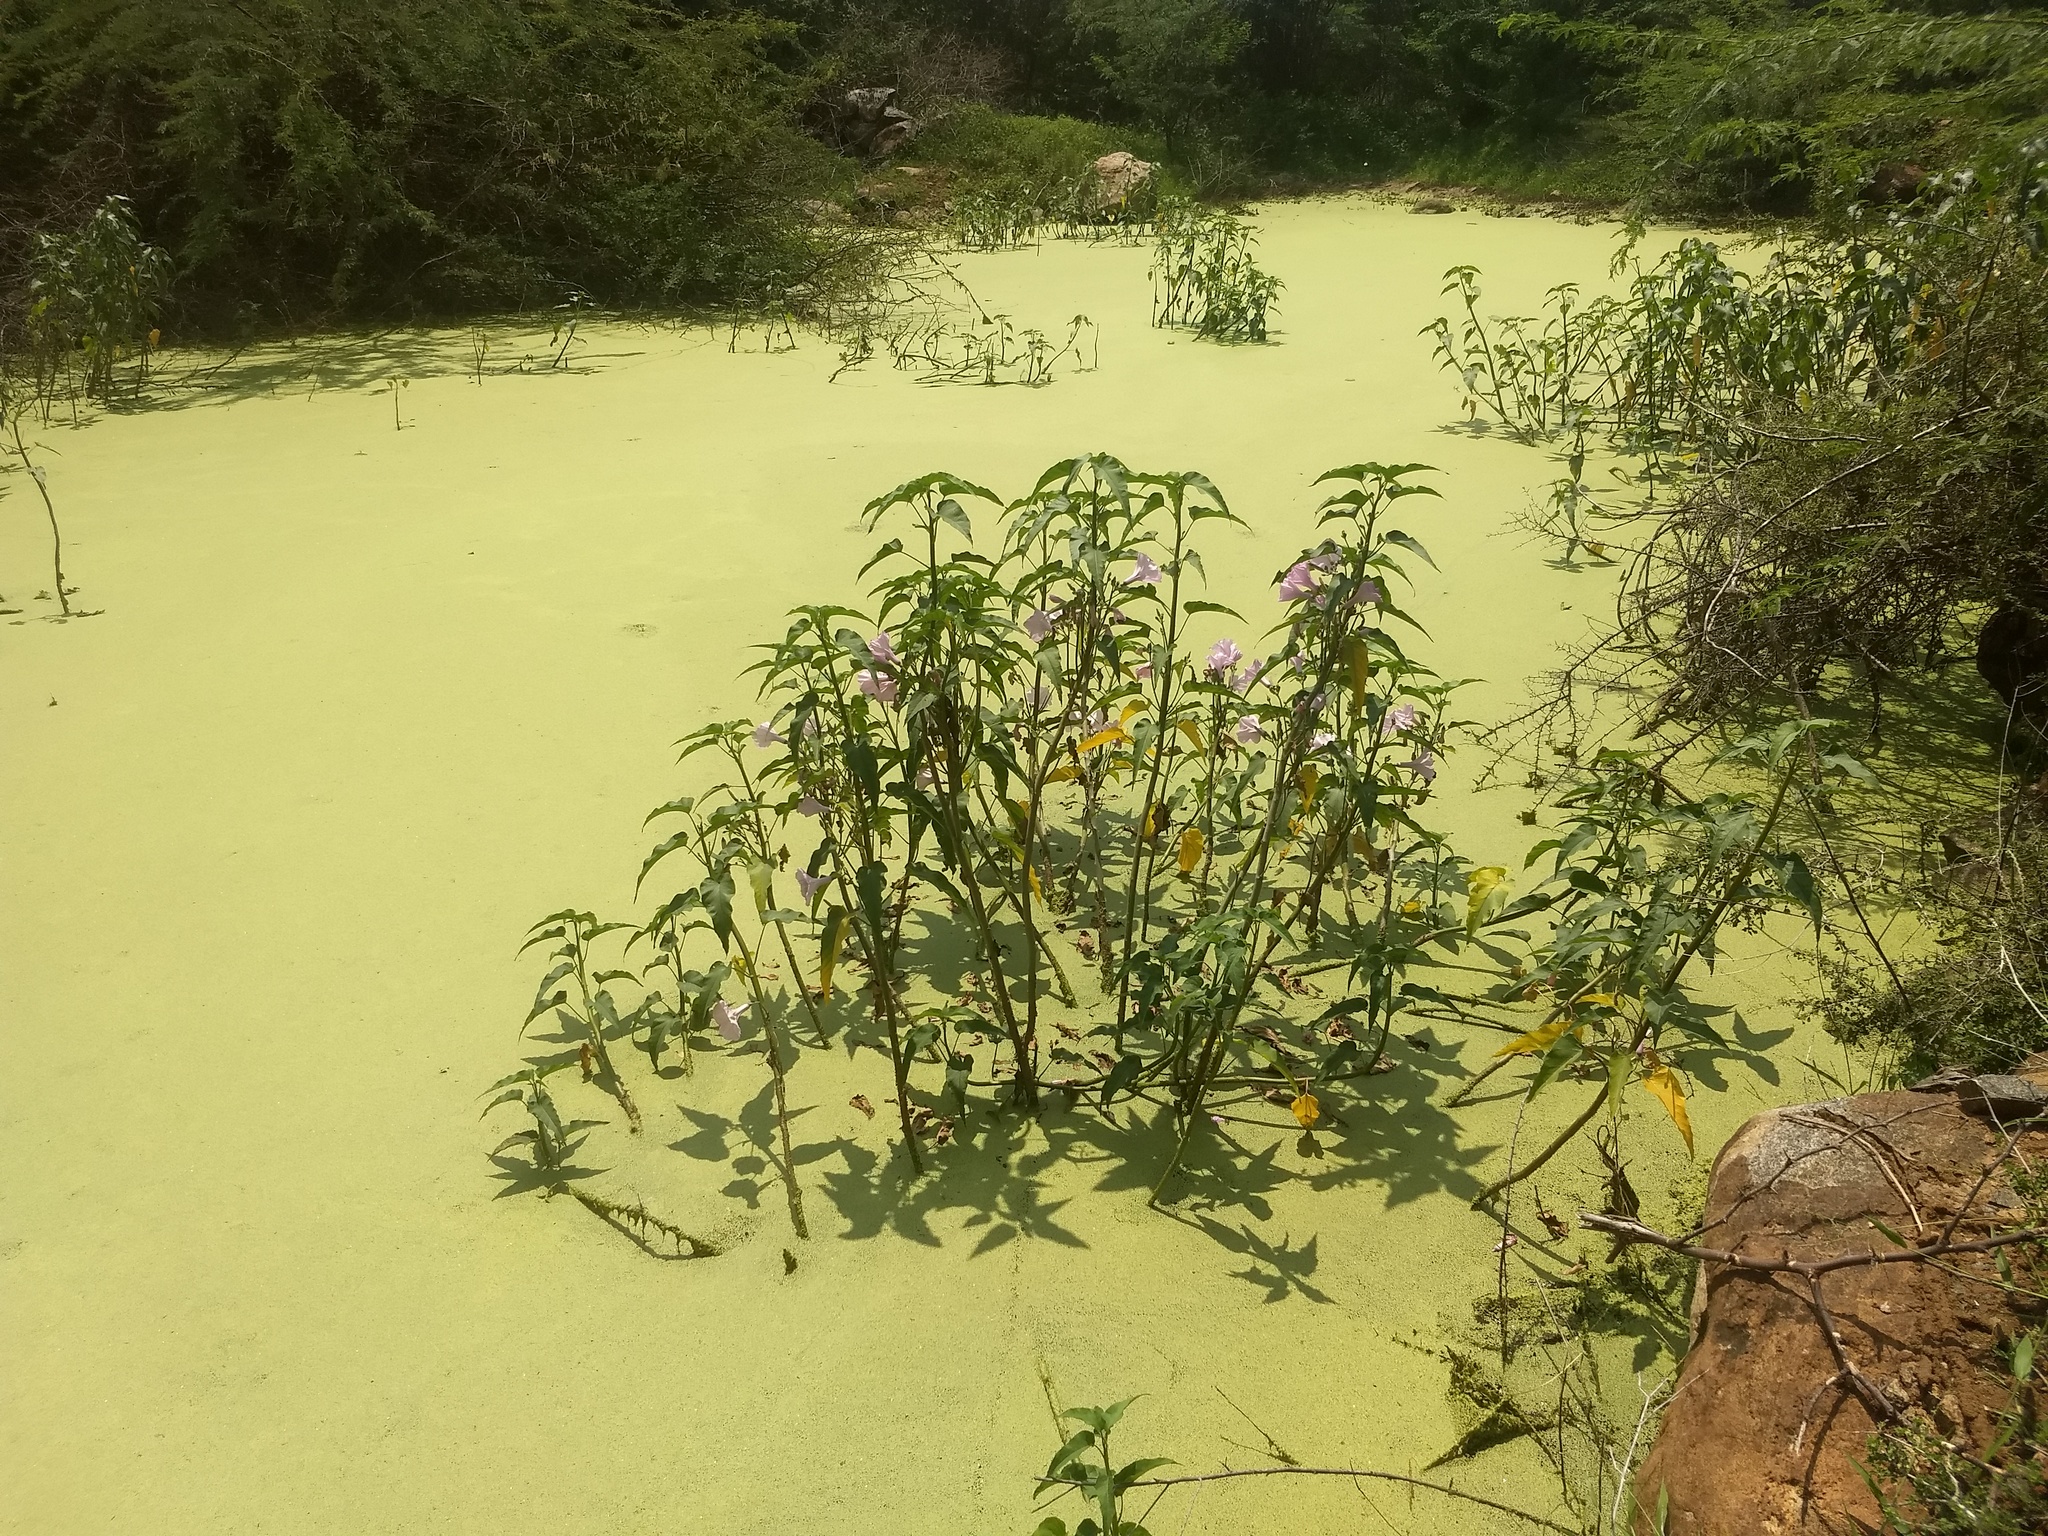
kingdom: Plantae
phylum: Tracheophyta
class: Magnoliopsida
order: Solanales
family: Convolvulaceae
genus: Ipomoea
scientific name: Ipomoea carnea
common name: Morning-glory
